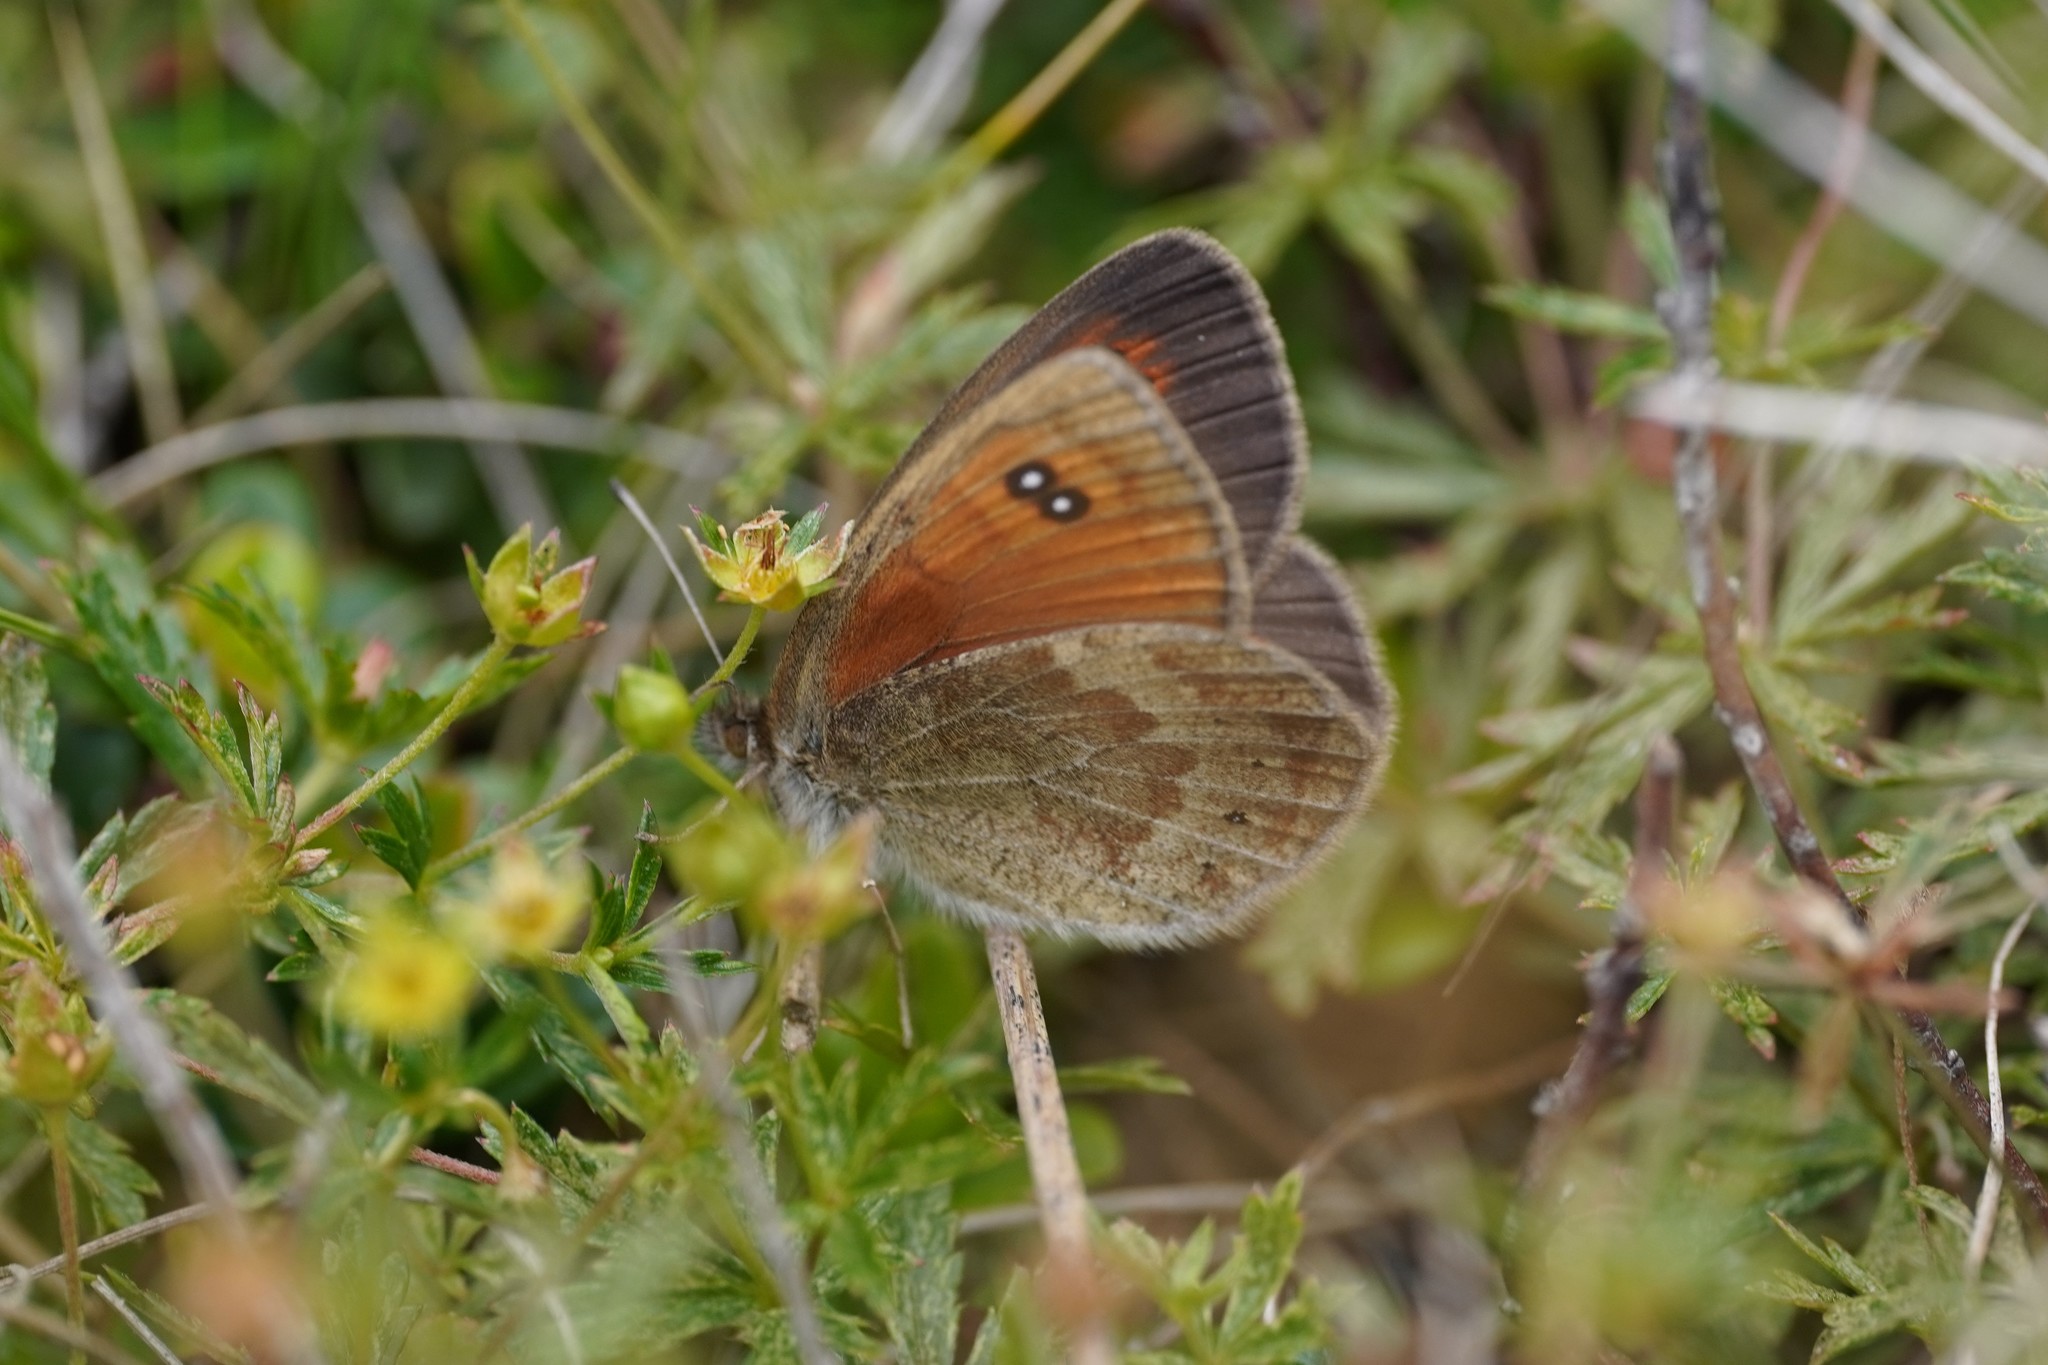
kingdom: Animalia
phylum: Arthropoda
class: Insecta
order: Lepidoptera
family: Nymphalidae
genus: Erebia
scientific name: Erebia tyndarus
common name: Swiss brassy ringlet
